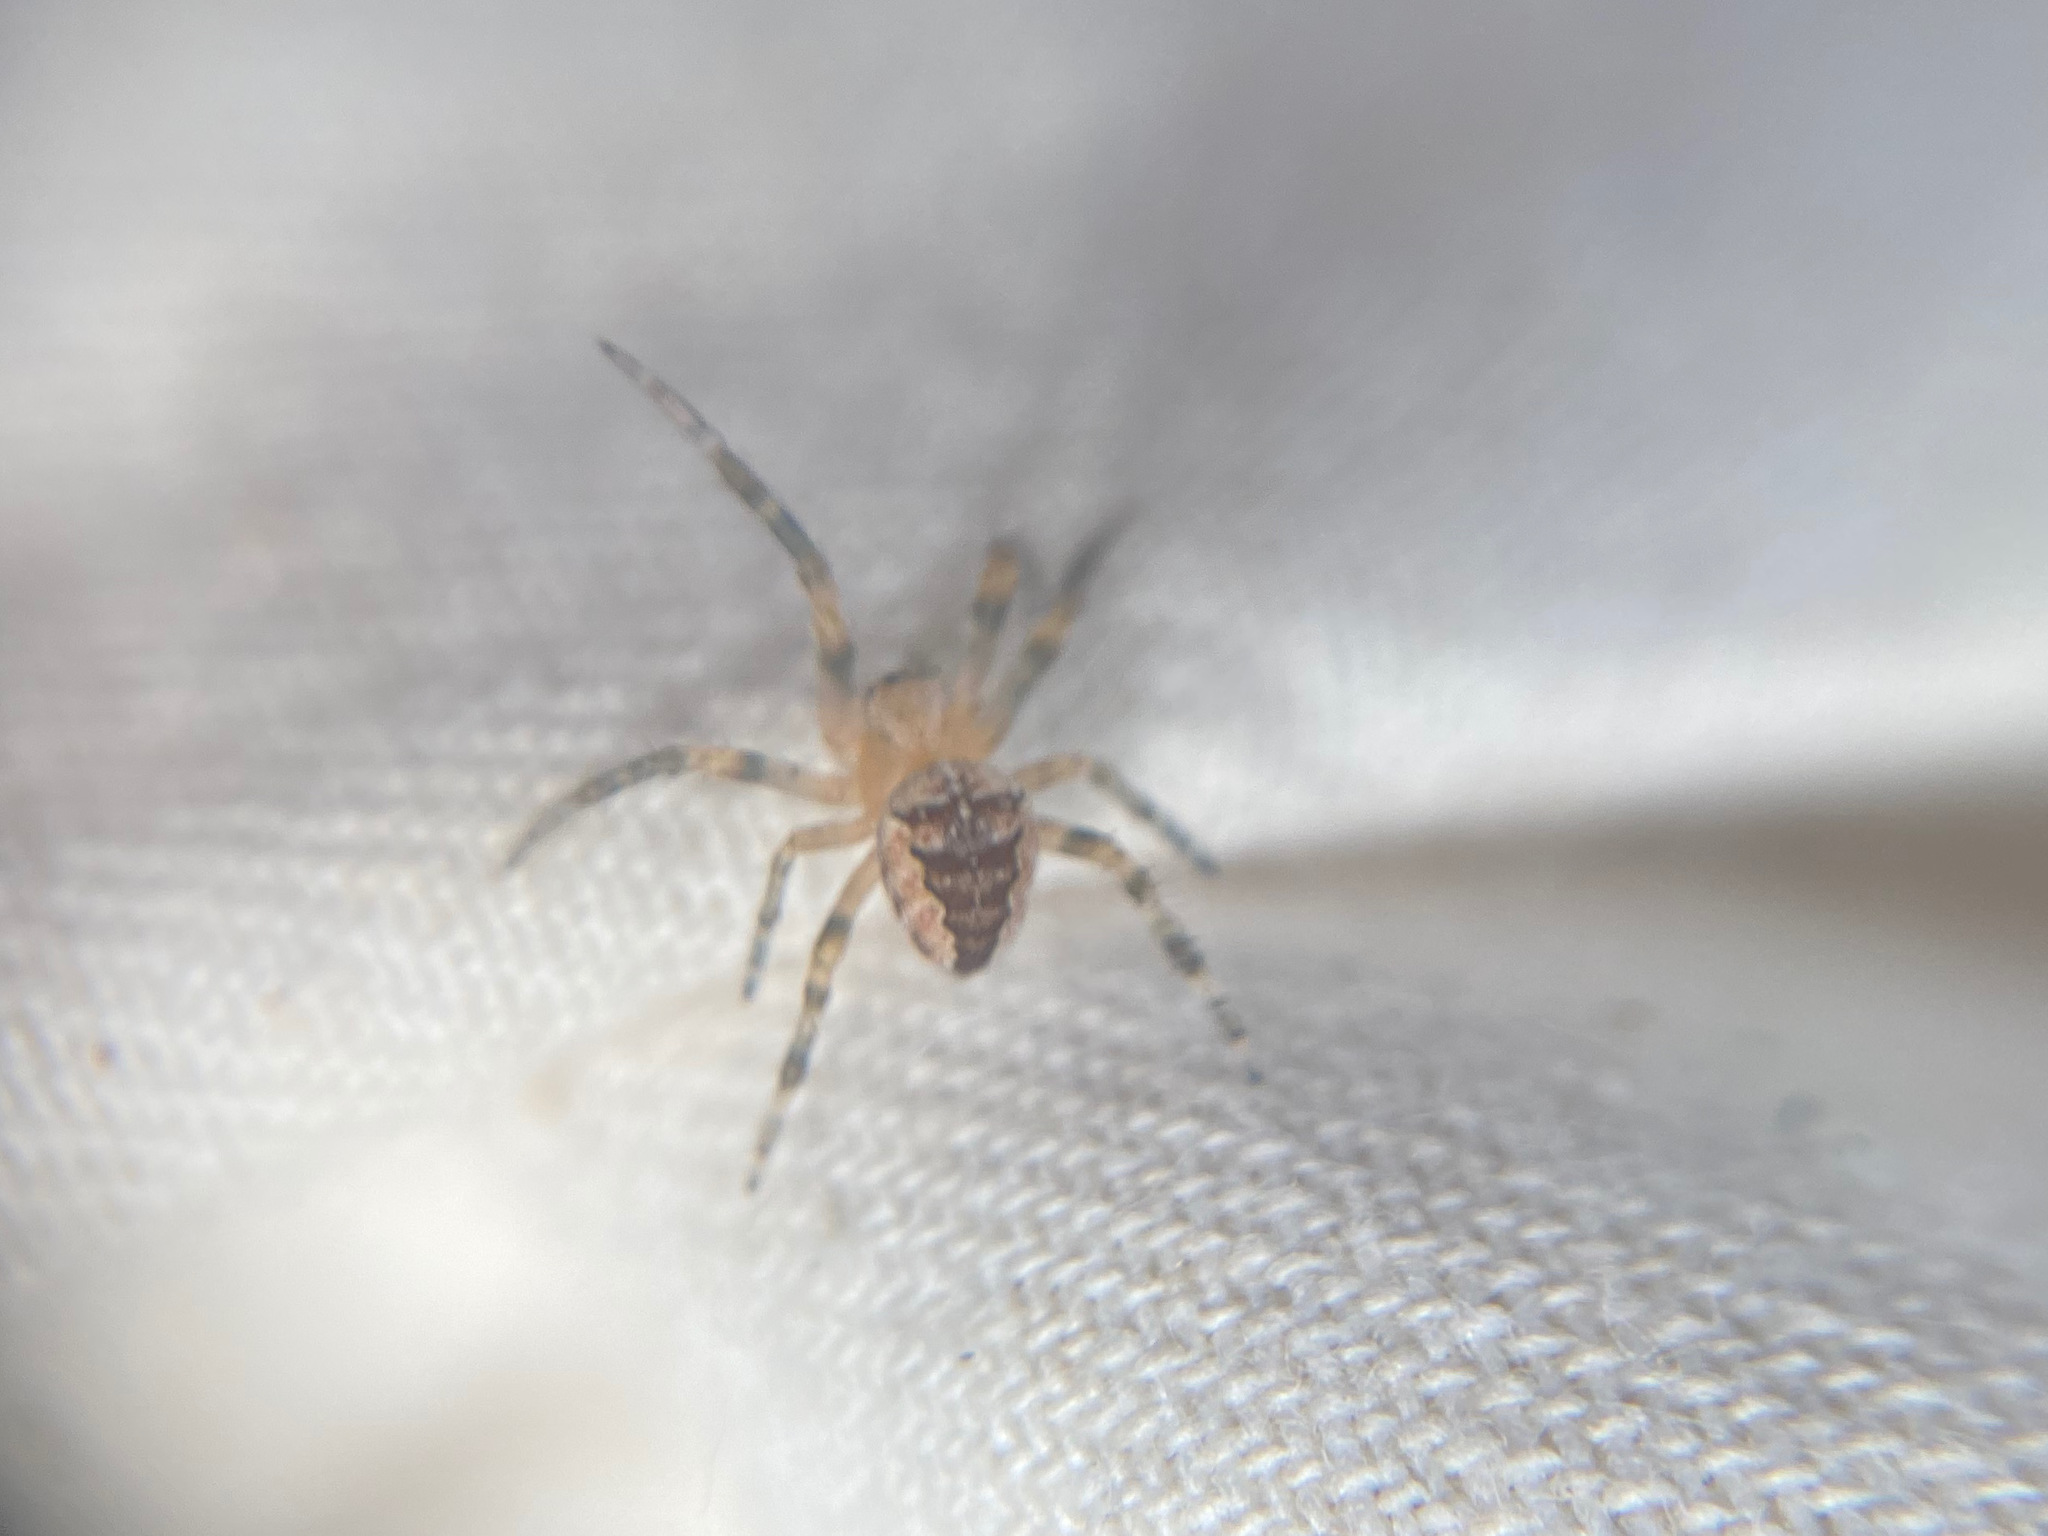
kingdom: Animalia
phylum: Arthropoda
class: Arachnida
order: Araneae
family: Araneidae
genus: Araneus
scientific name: Araneus diadematus
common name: Cross orbweaver
